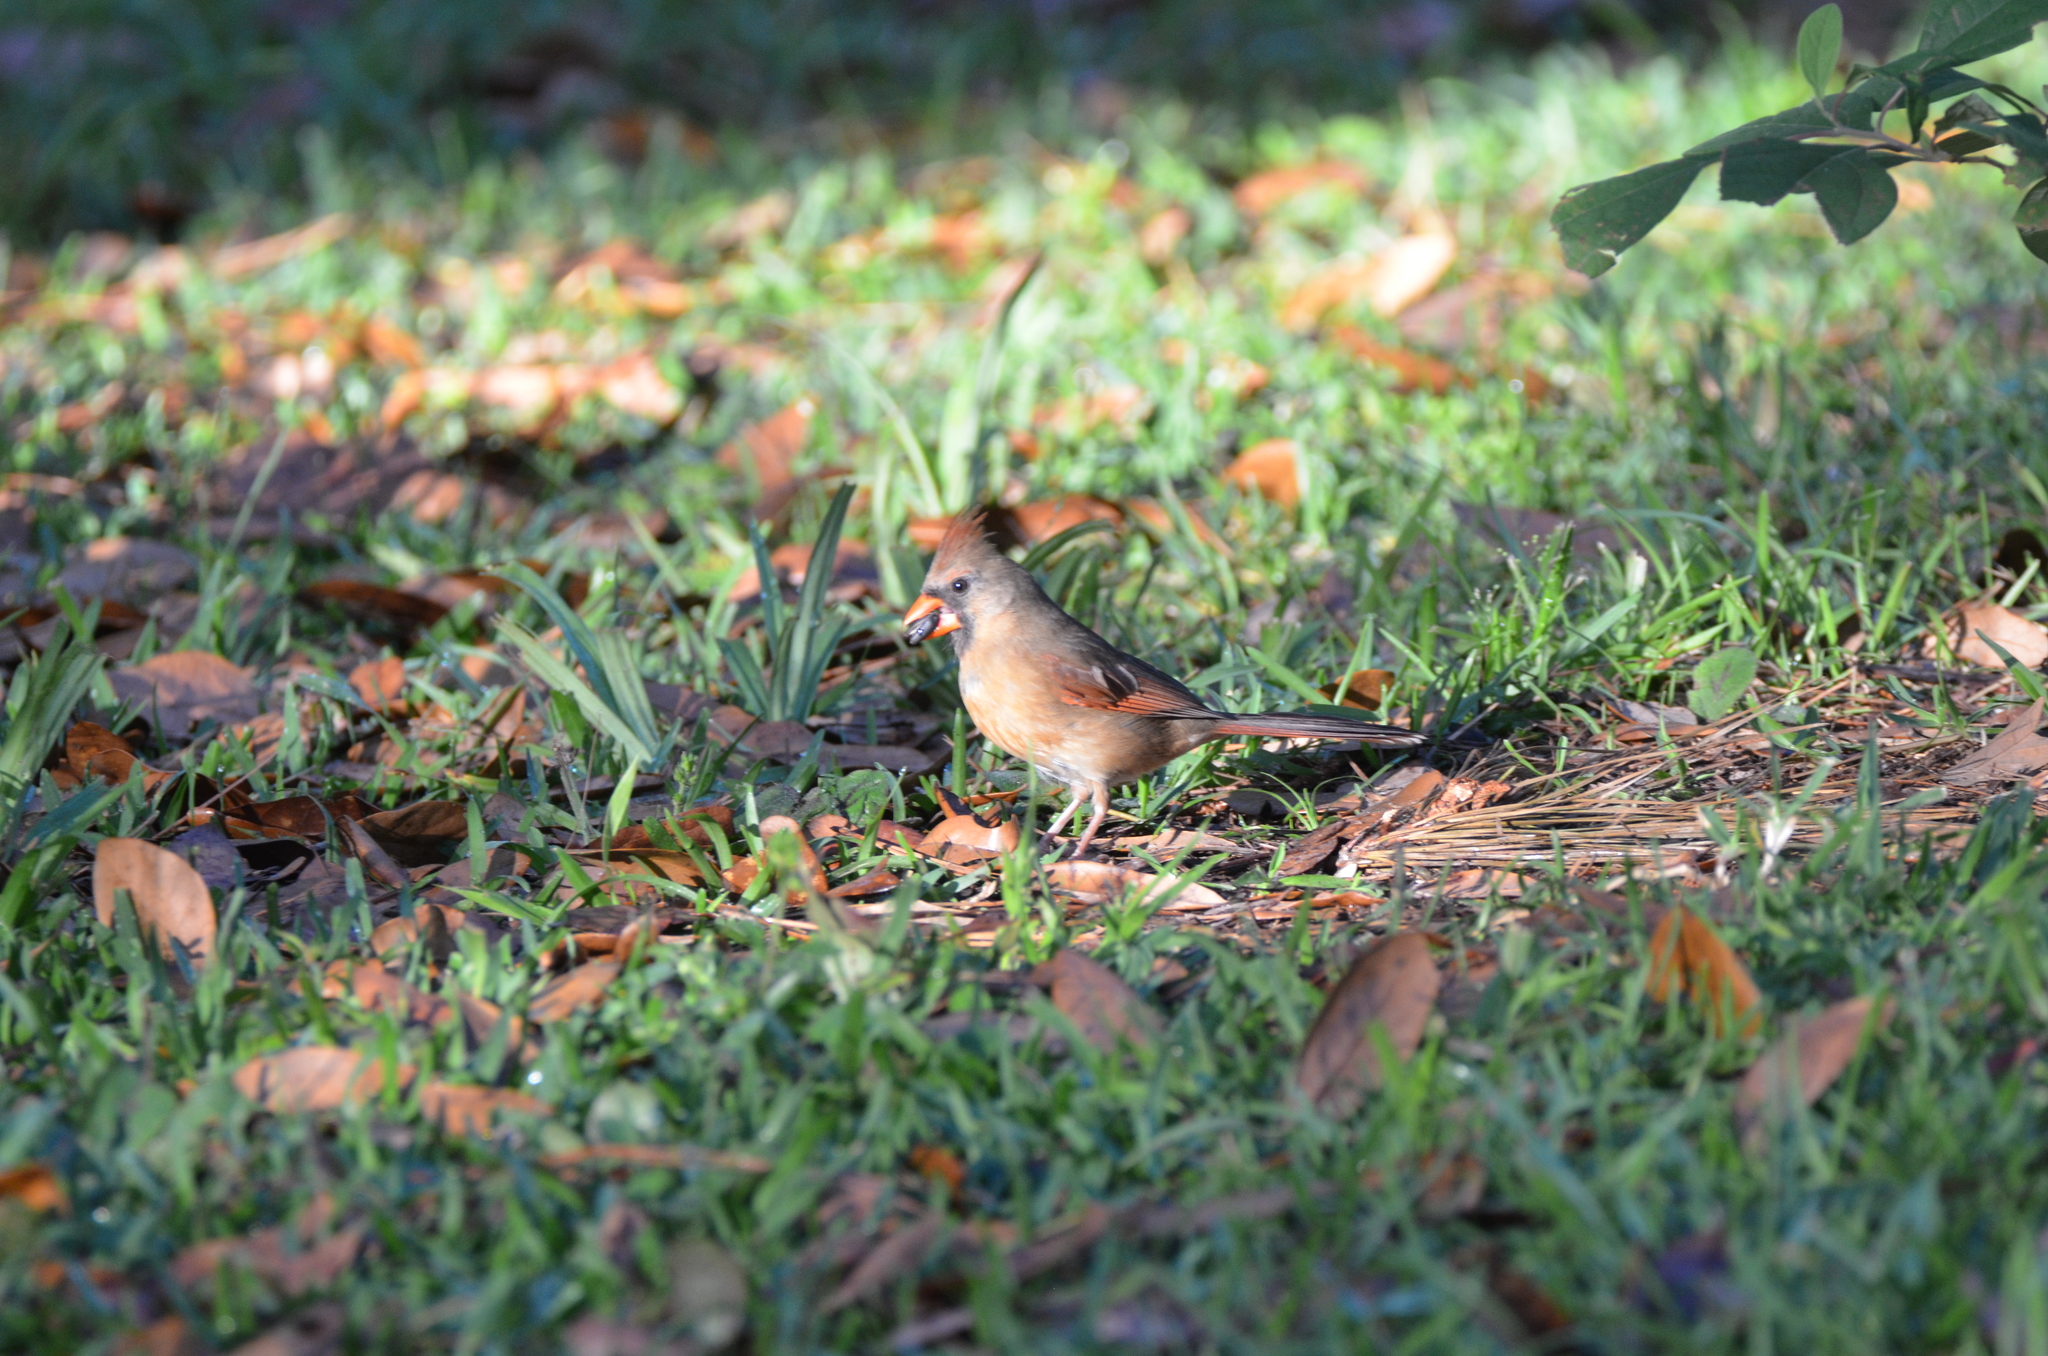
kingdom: Animalia
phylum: Chordata
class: Aves
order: Passeriformes
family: Cardinalidae
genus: Cardinalis
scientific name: Cardinalis cardinalis
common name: Northern cardinal
